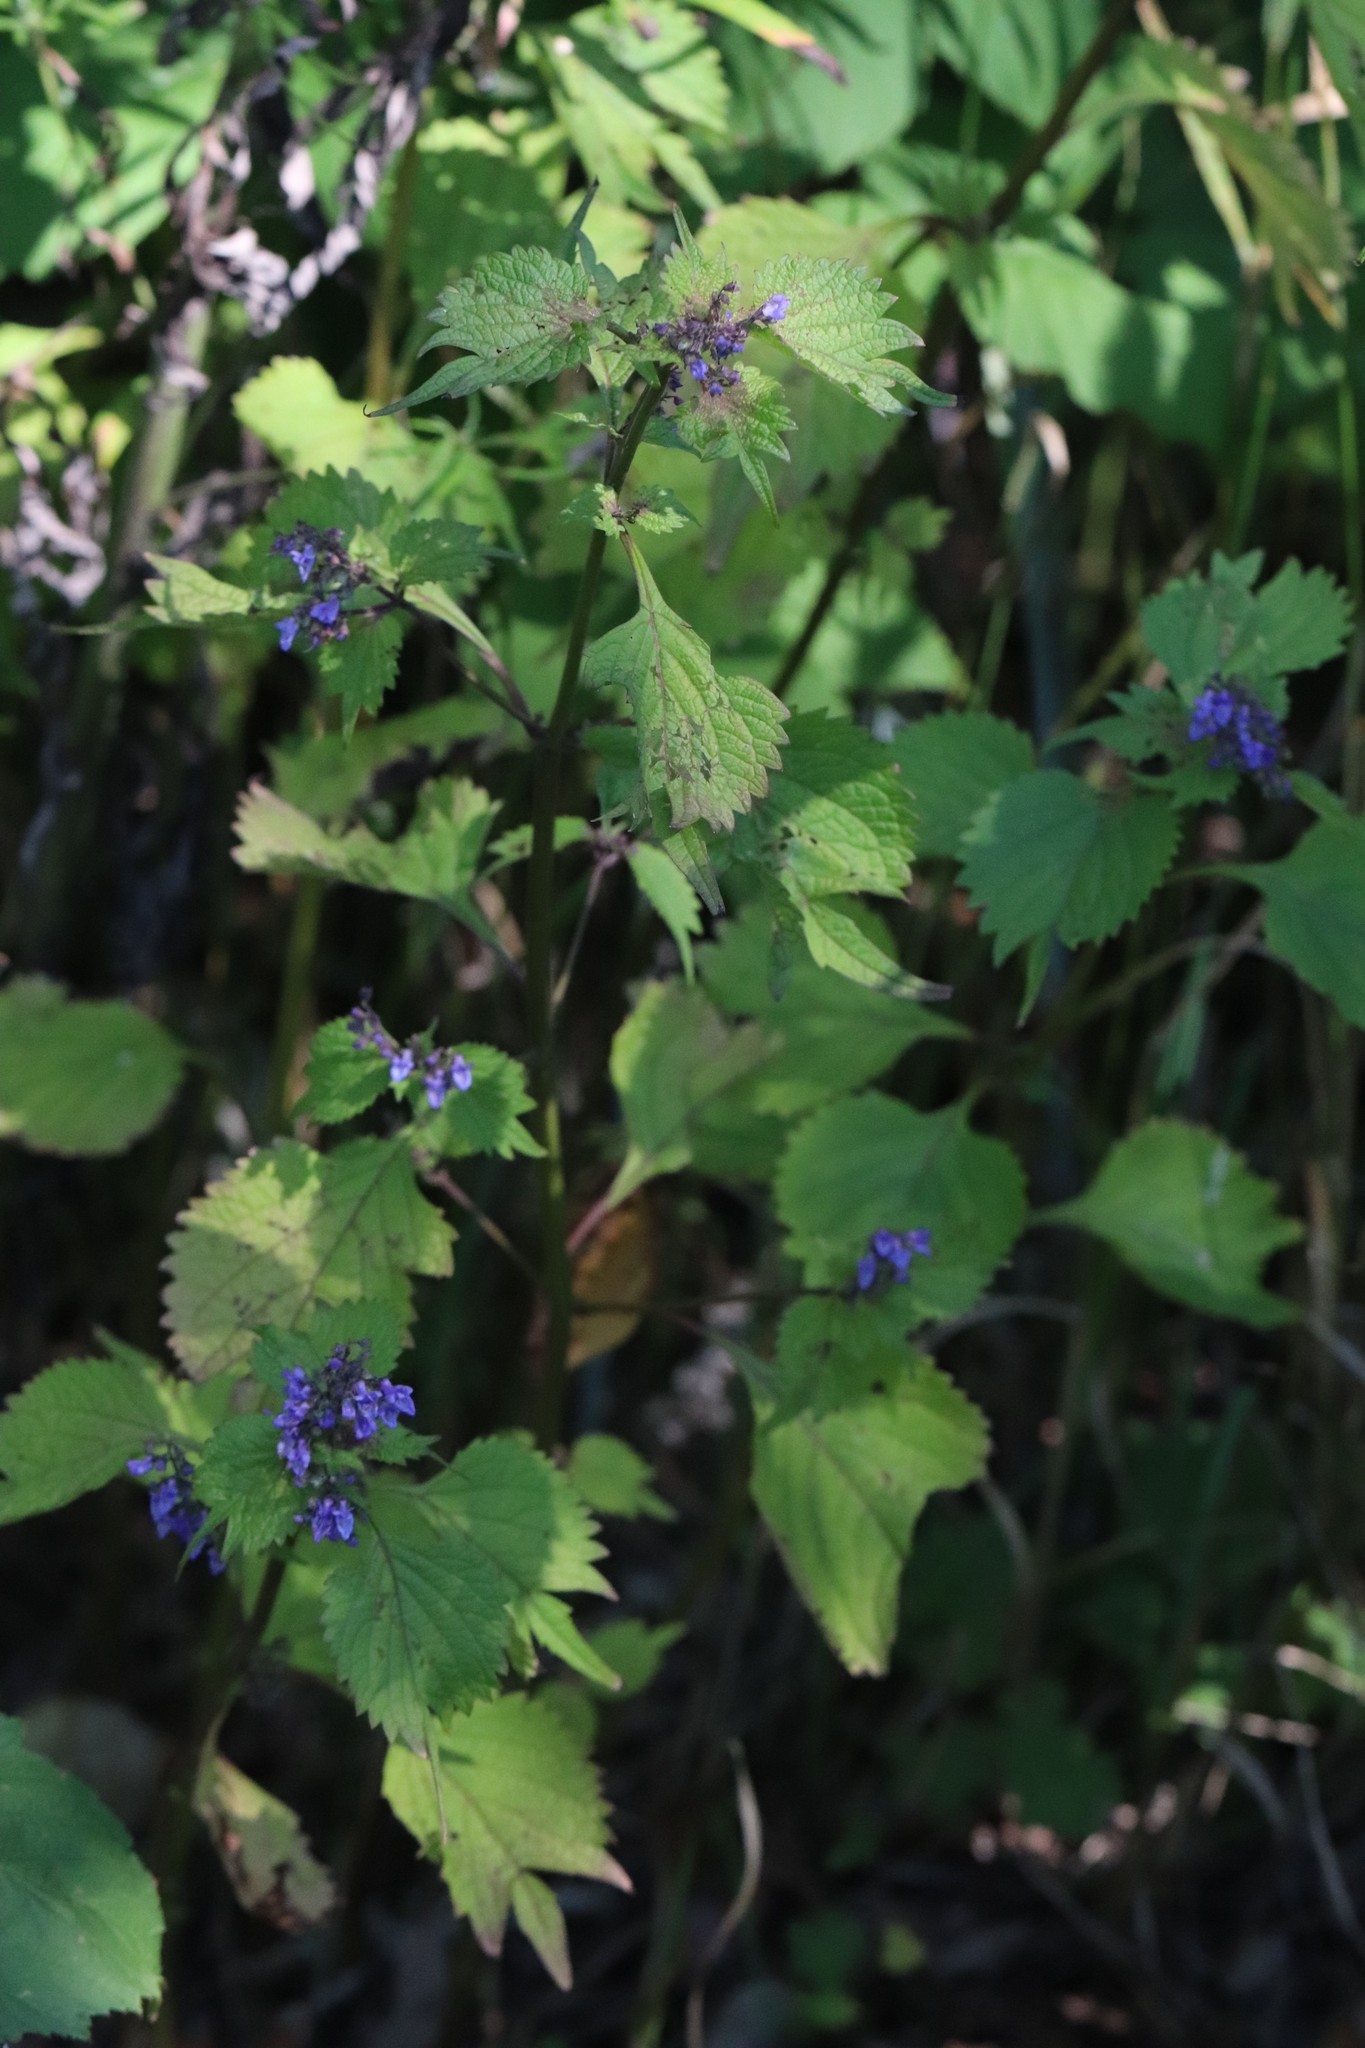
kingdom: Plantae
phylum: Tracheophyta
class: Magnoliopsida
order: Lamiales
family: Lamiaceae
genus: Isodon
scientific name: Isodon excisus
